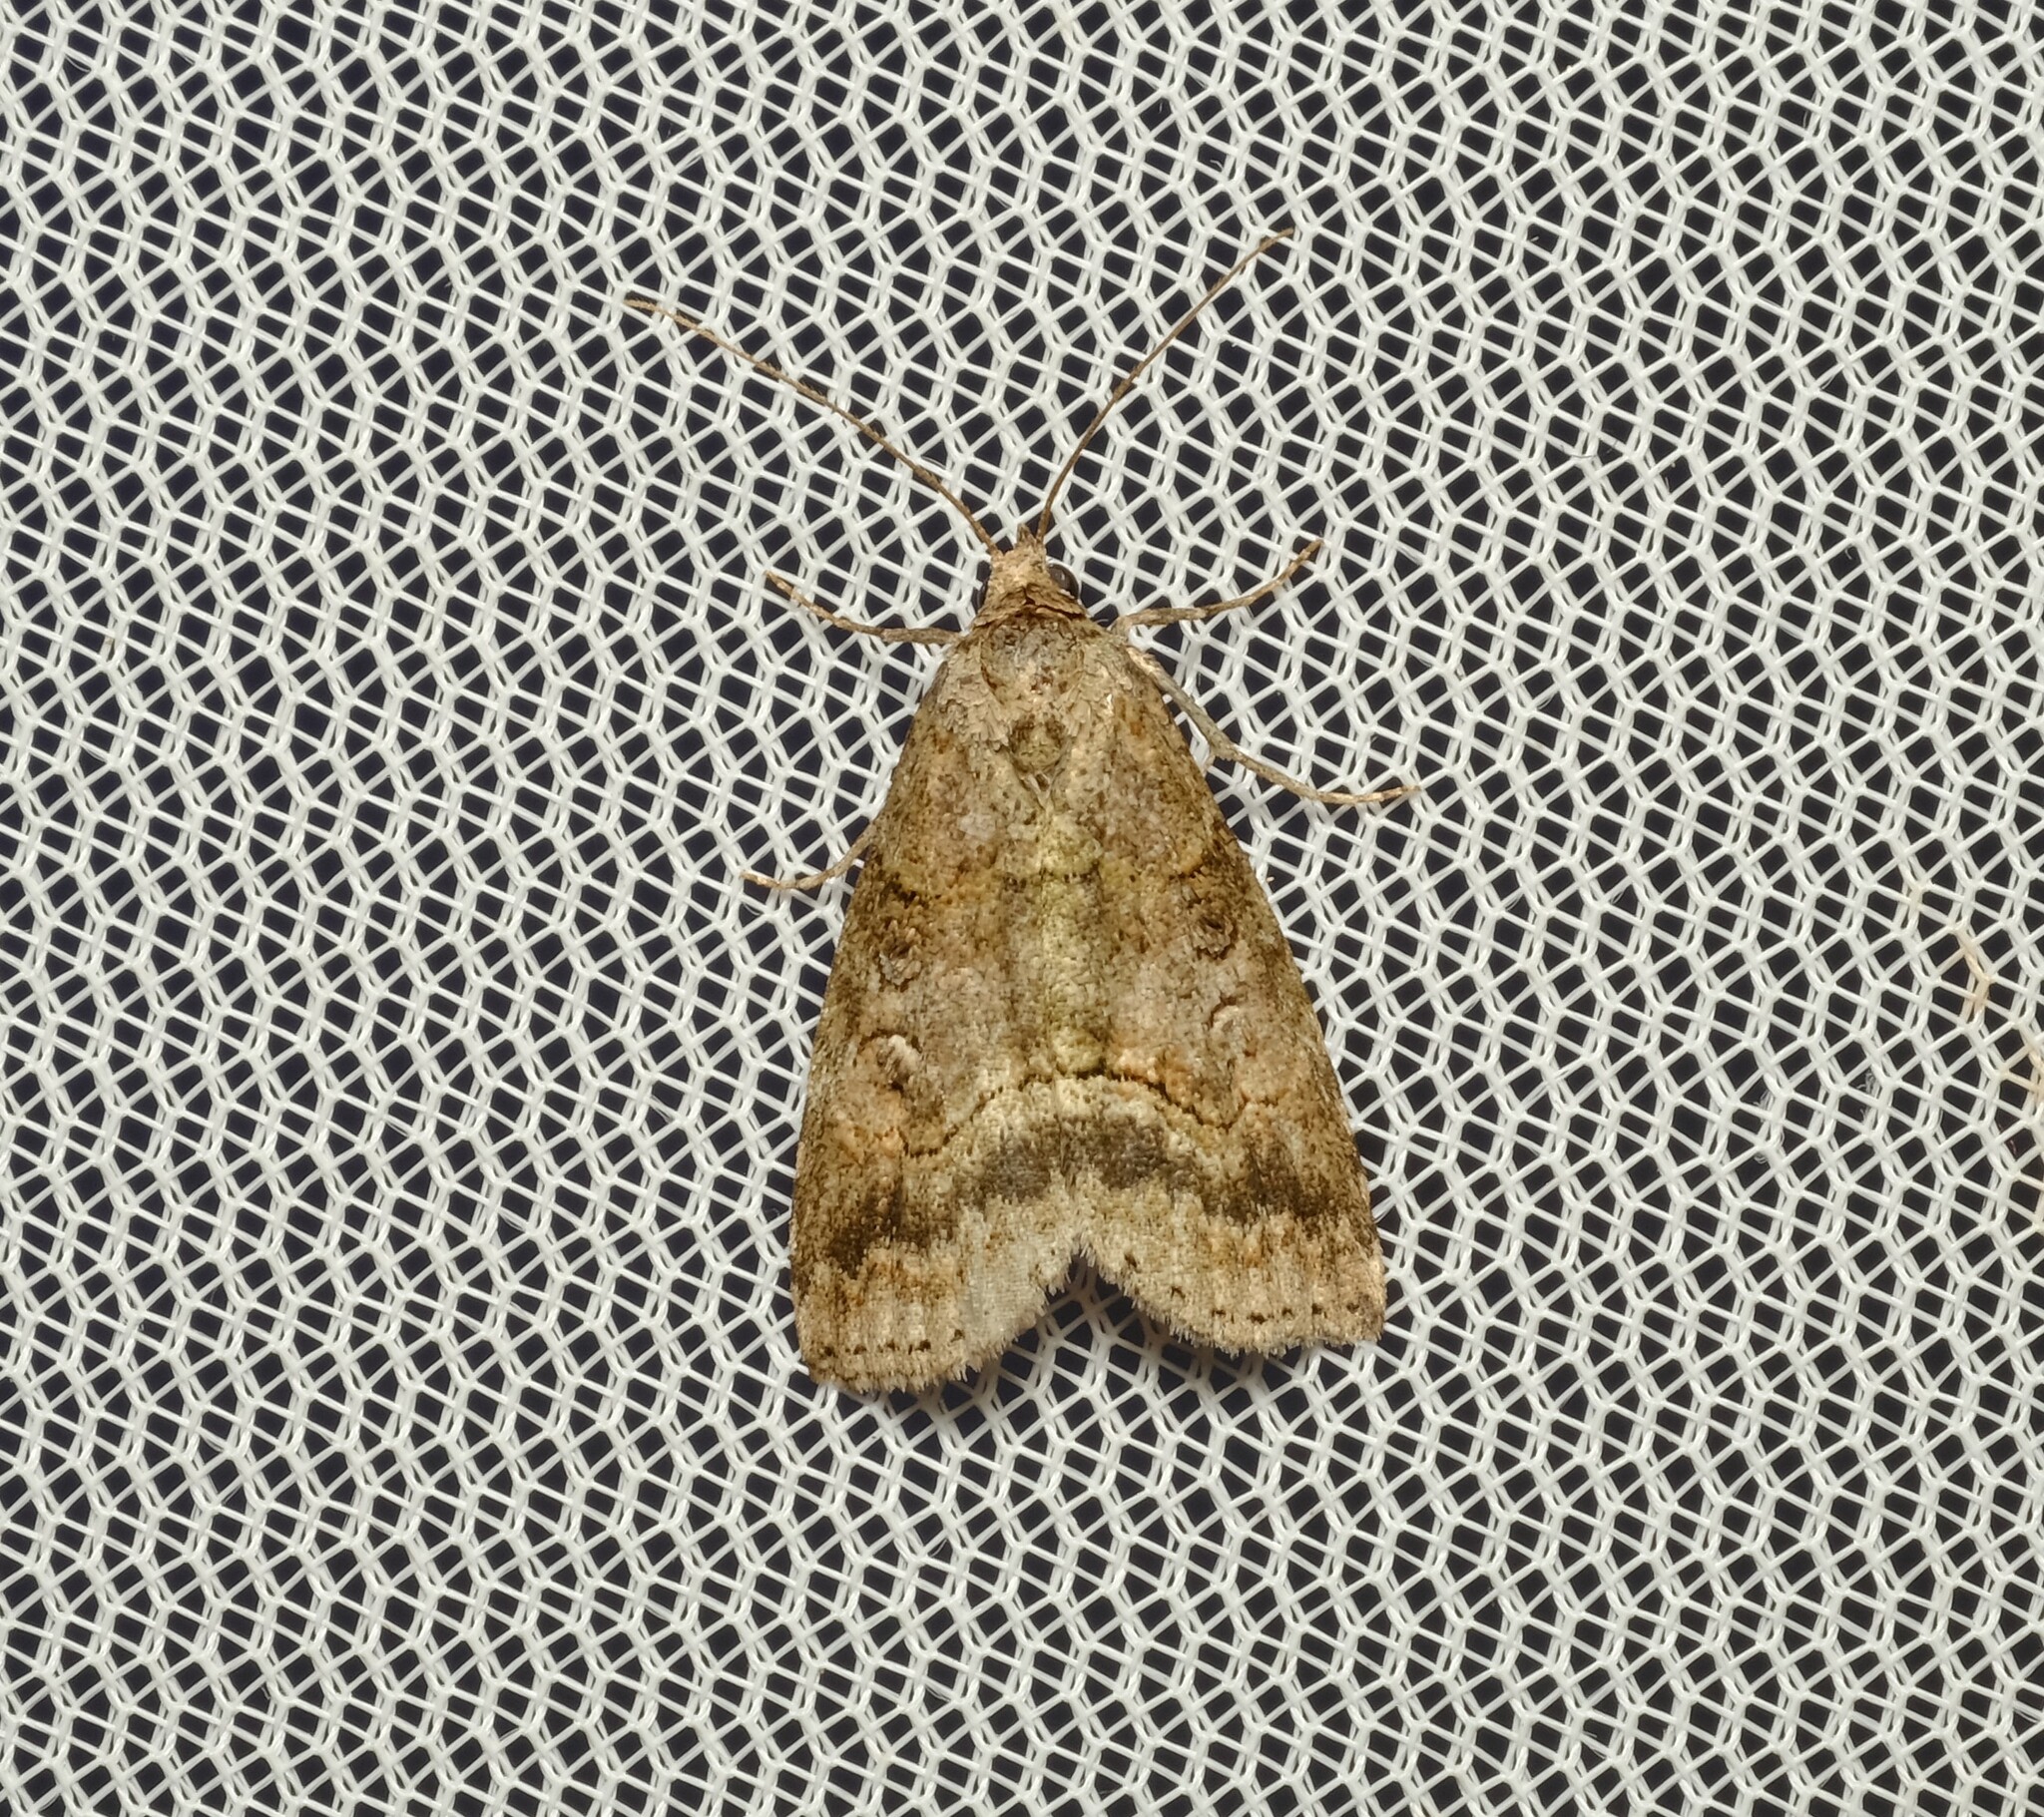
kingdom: Animalia
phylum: Arthropoda
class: Insecta
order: Lepidoptera
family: Nolidae
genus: Calathusa
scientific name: Calathusa hypotherma
